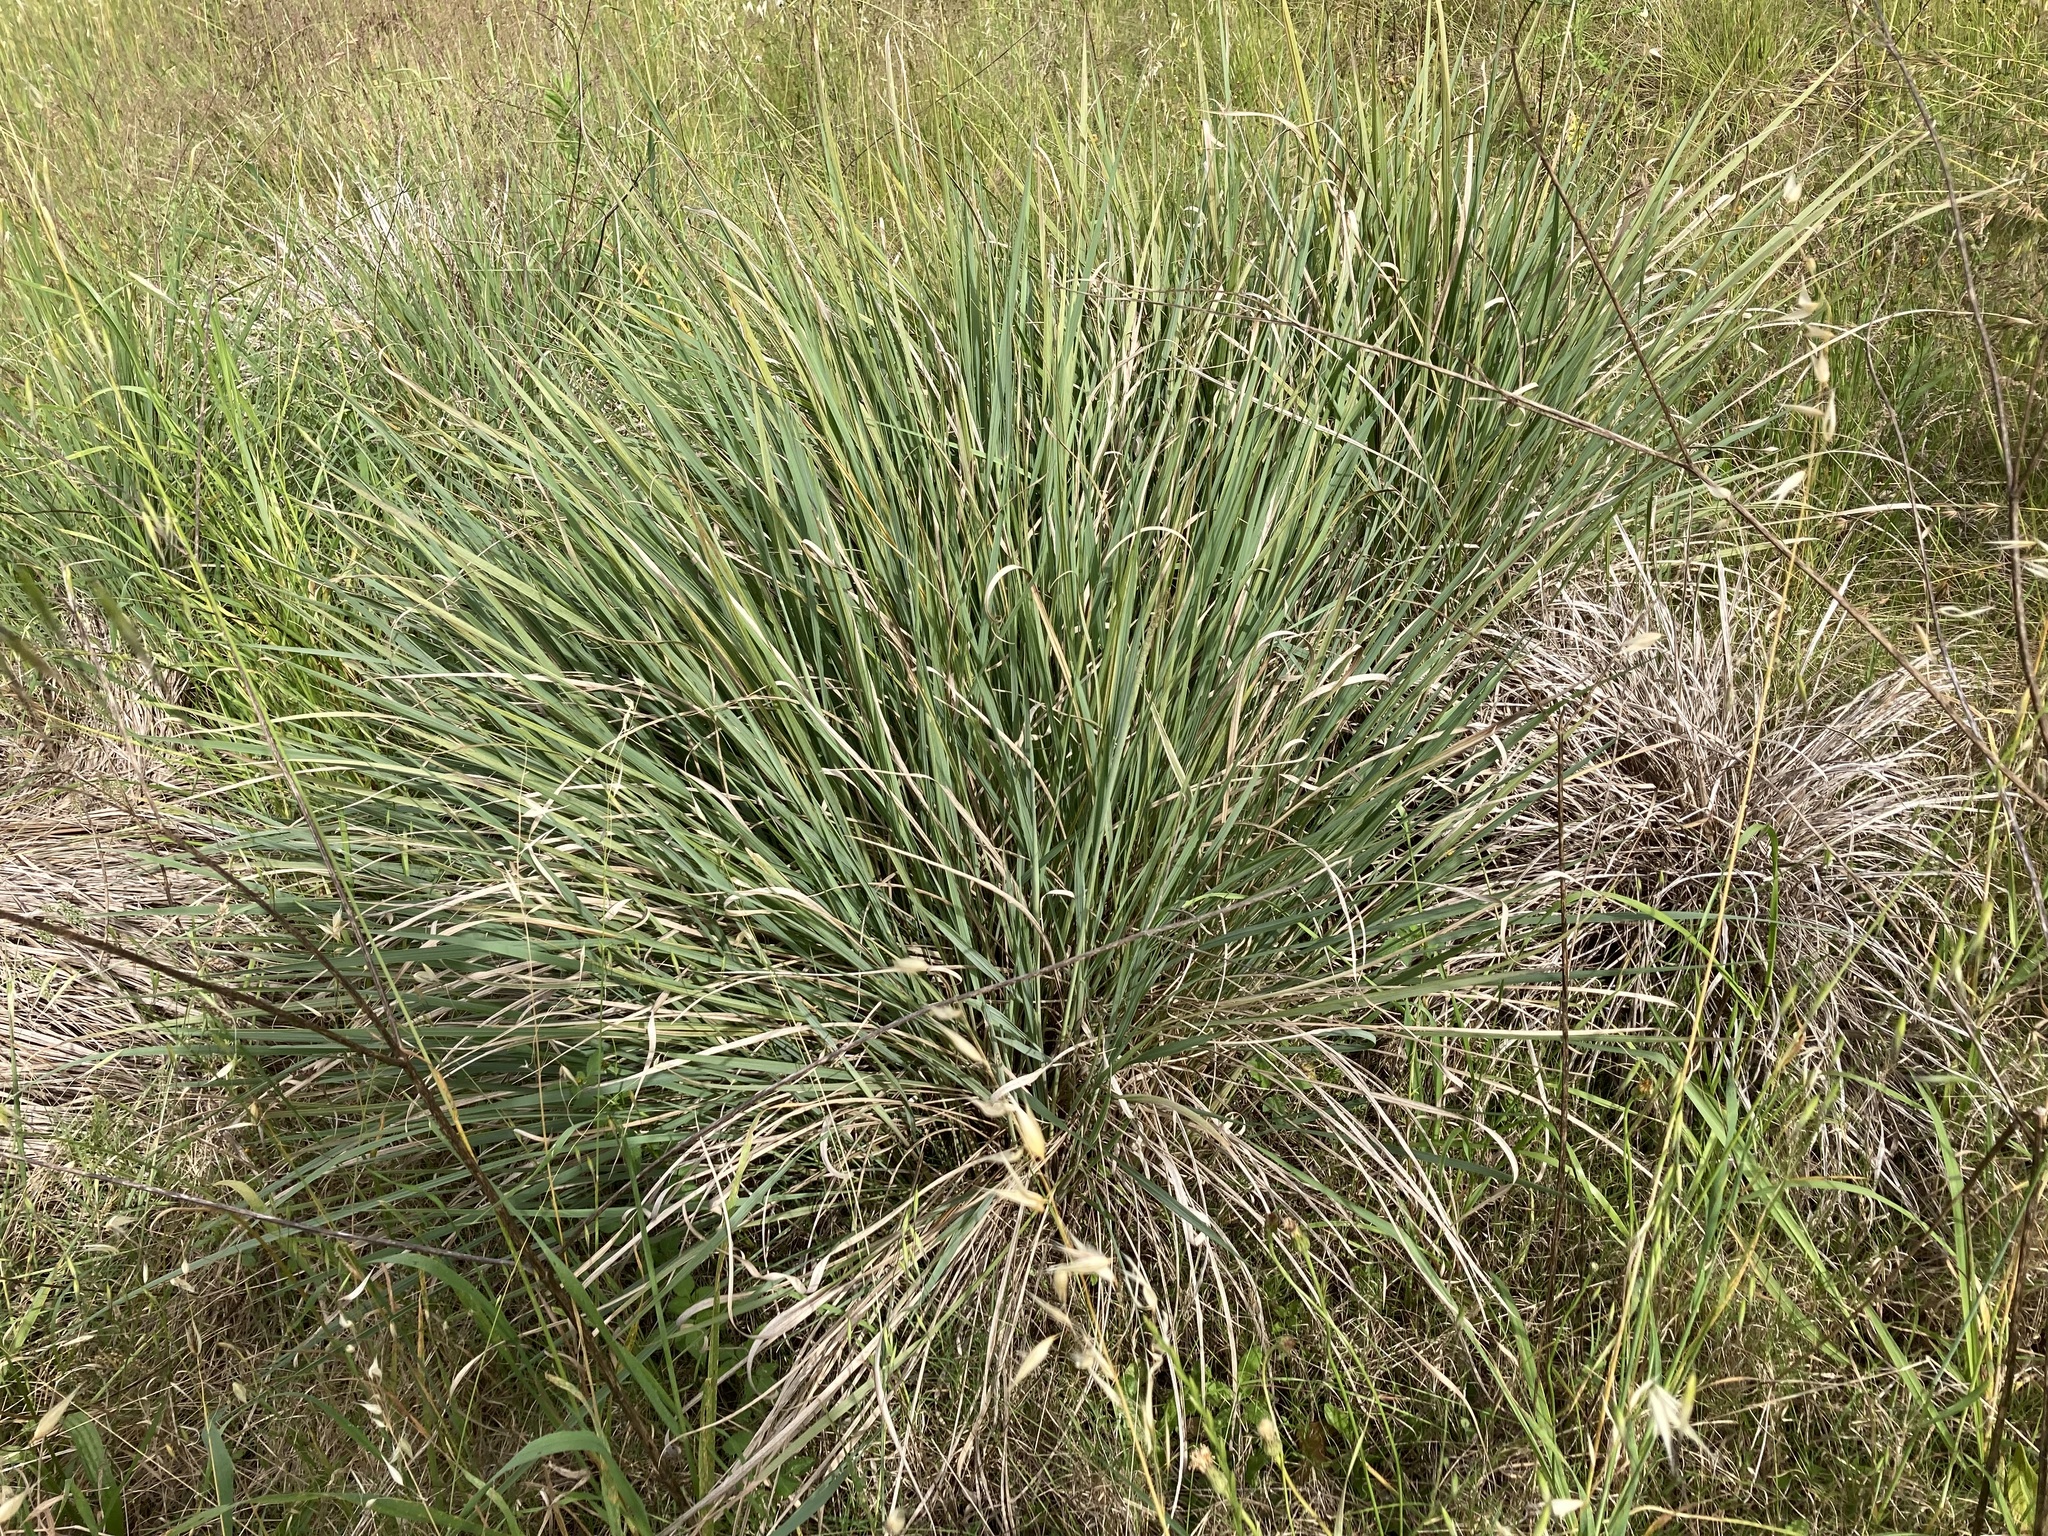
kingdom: Plantae
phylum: Tracheophyta
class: Liliopsida
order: Poales
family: Poaceae
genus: Paspalum
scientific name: Paspalum quadrifarium
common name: Tussock paspalum
